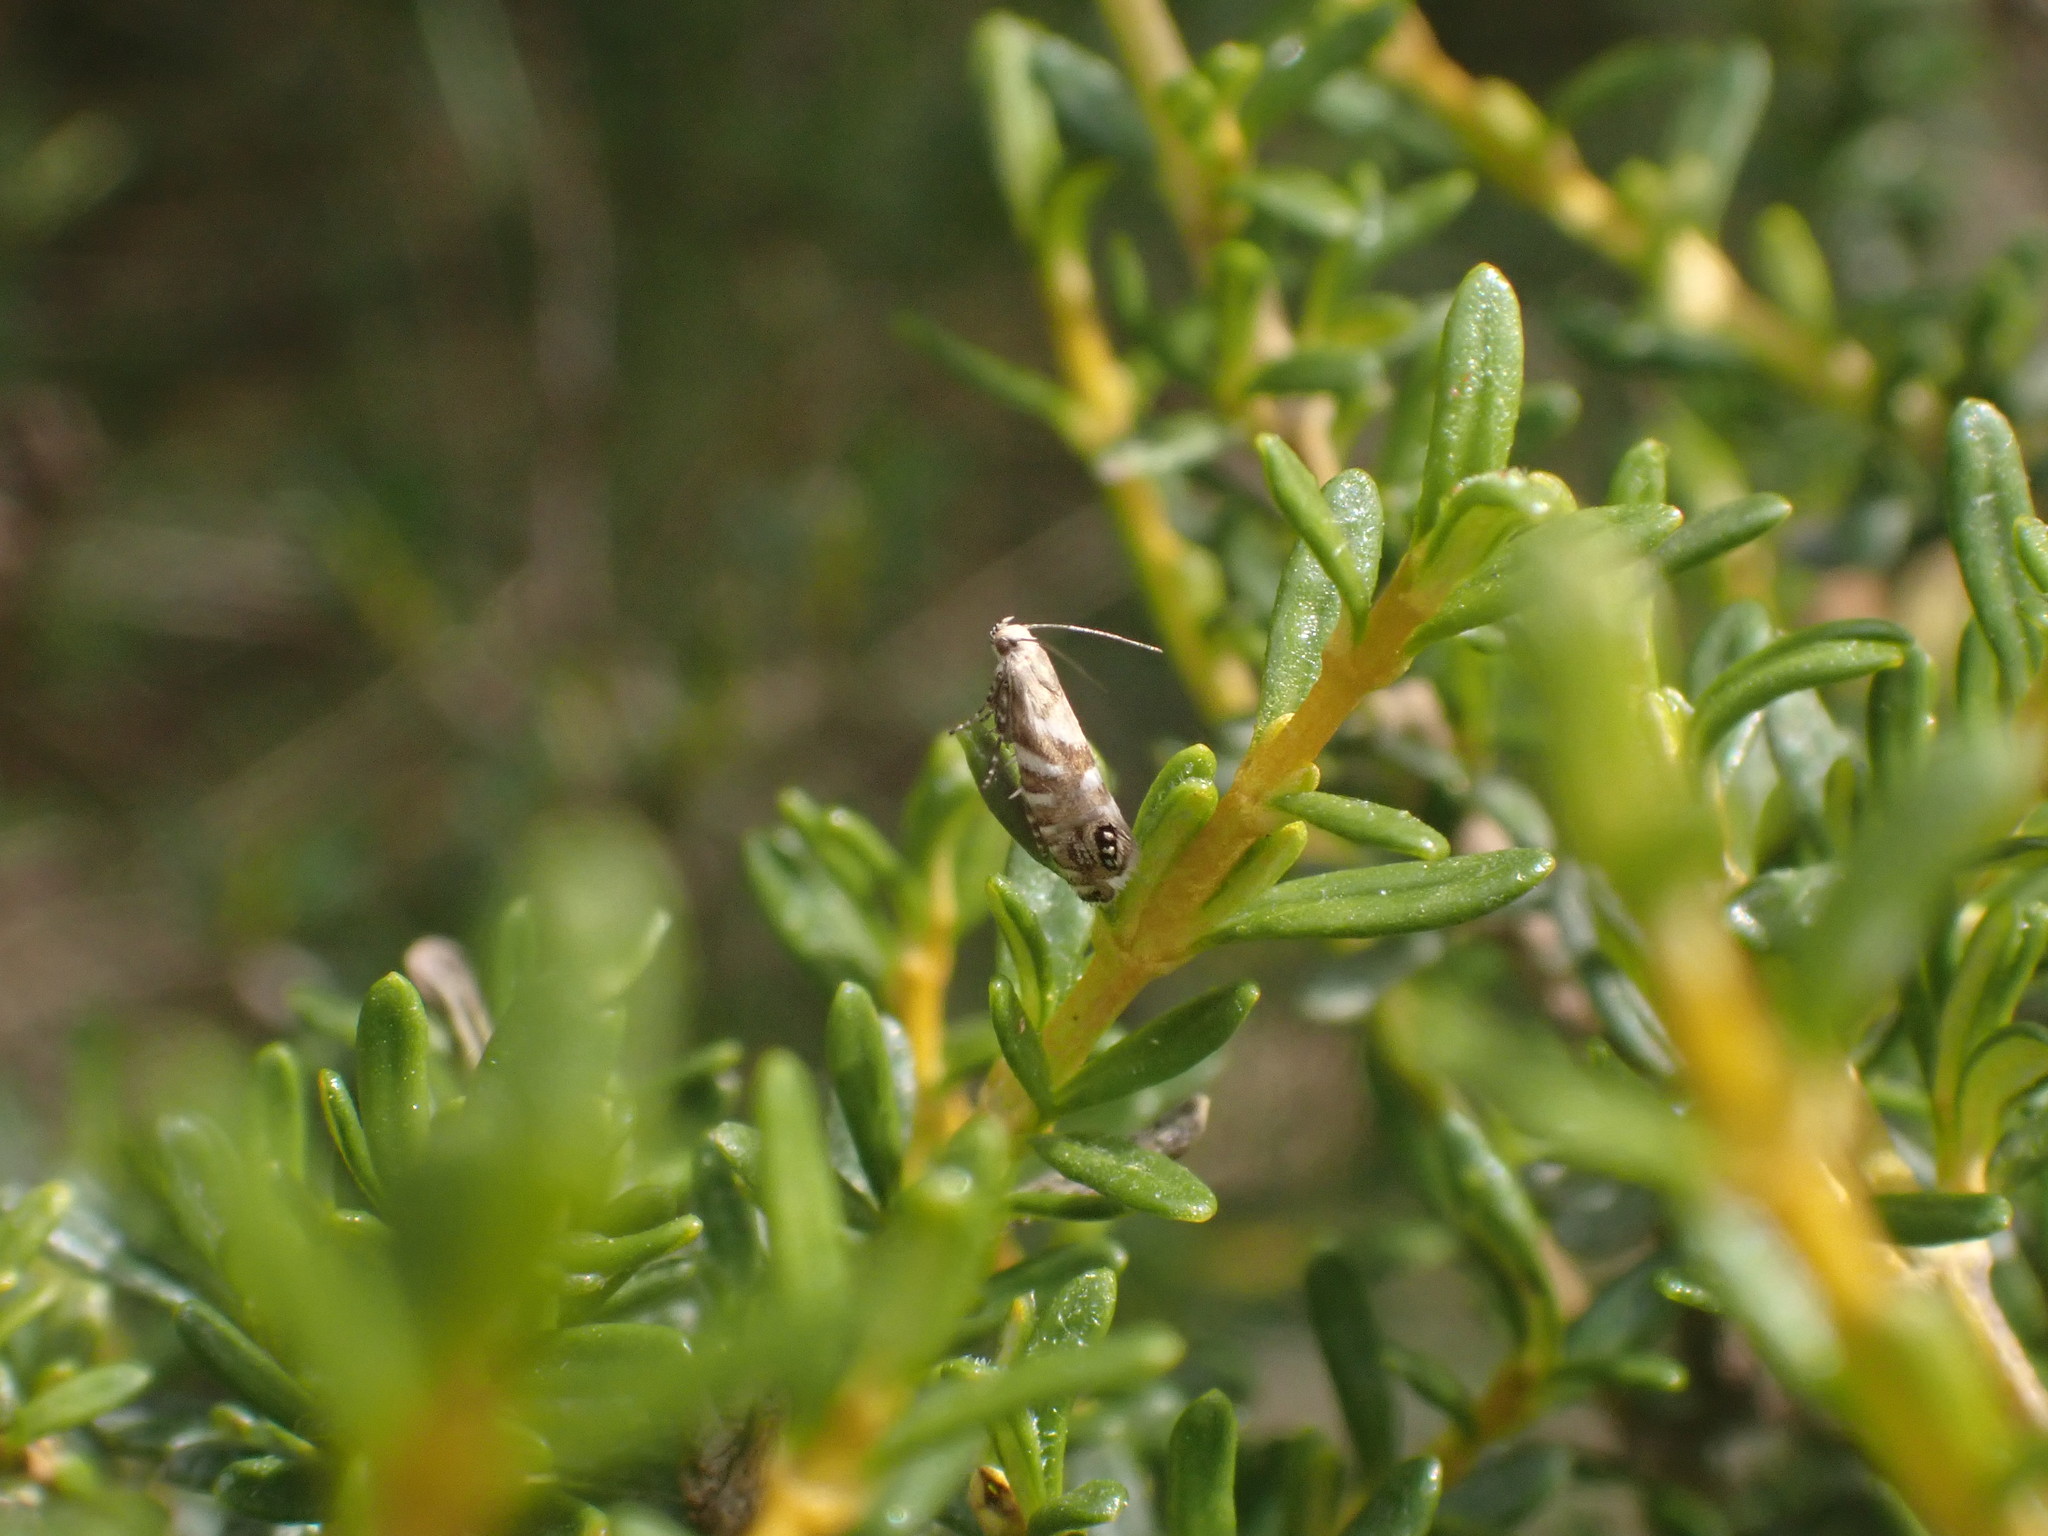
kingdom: Animalia
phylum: Arthropoda
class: Insecta
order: Lepidoptera
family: Glyphipterigidae
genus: Glyphipterix
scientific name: Glyphipterix similis
